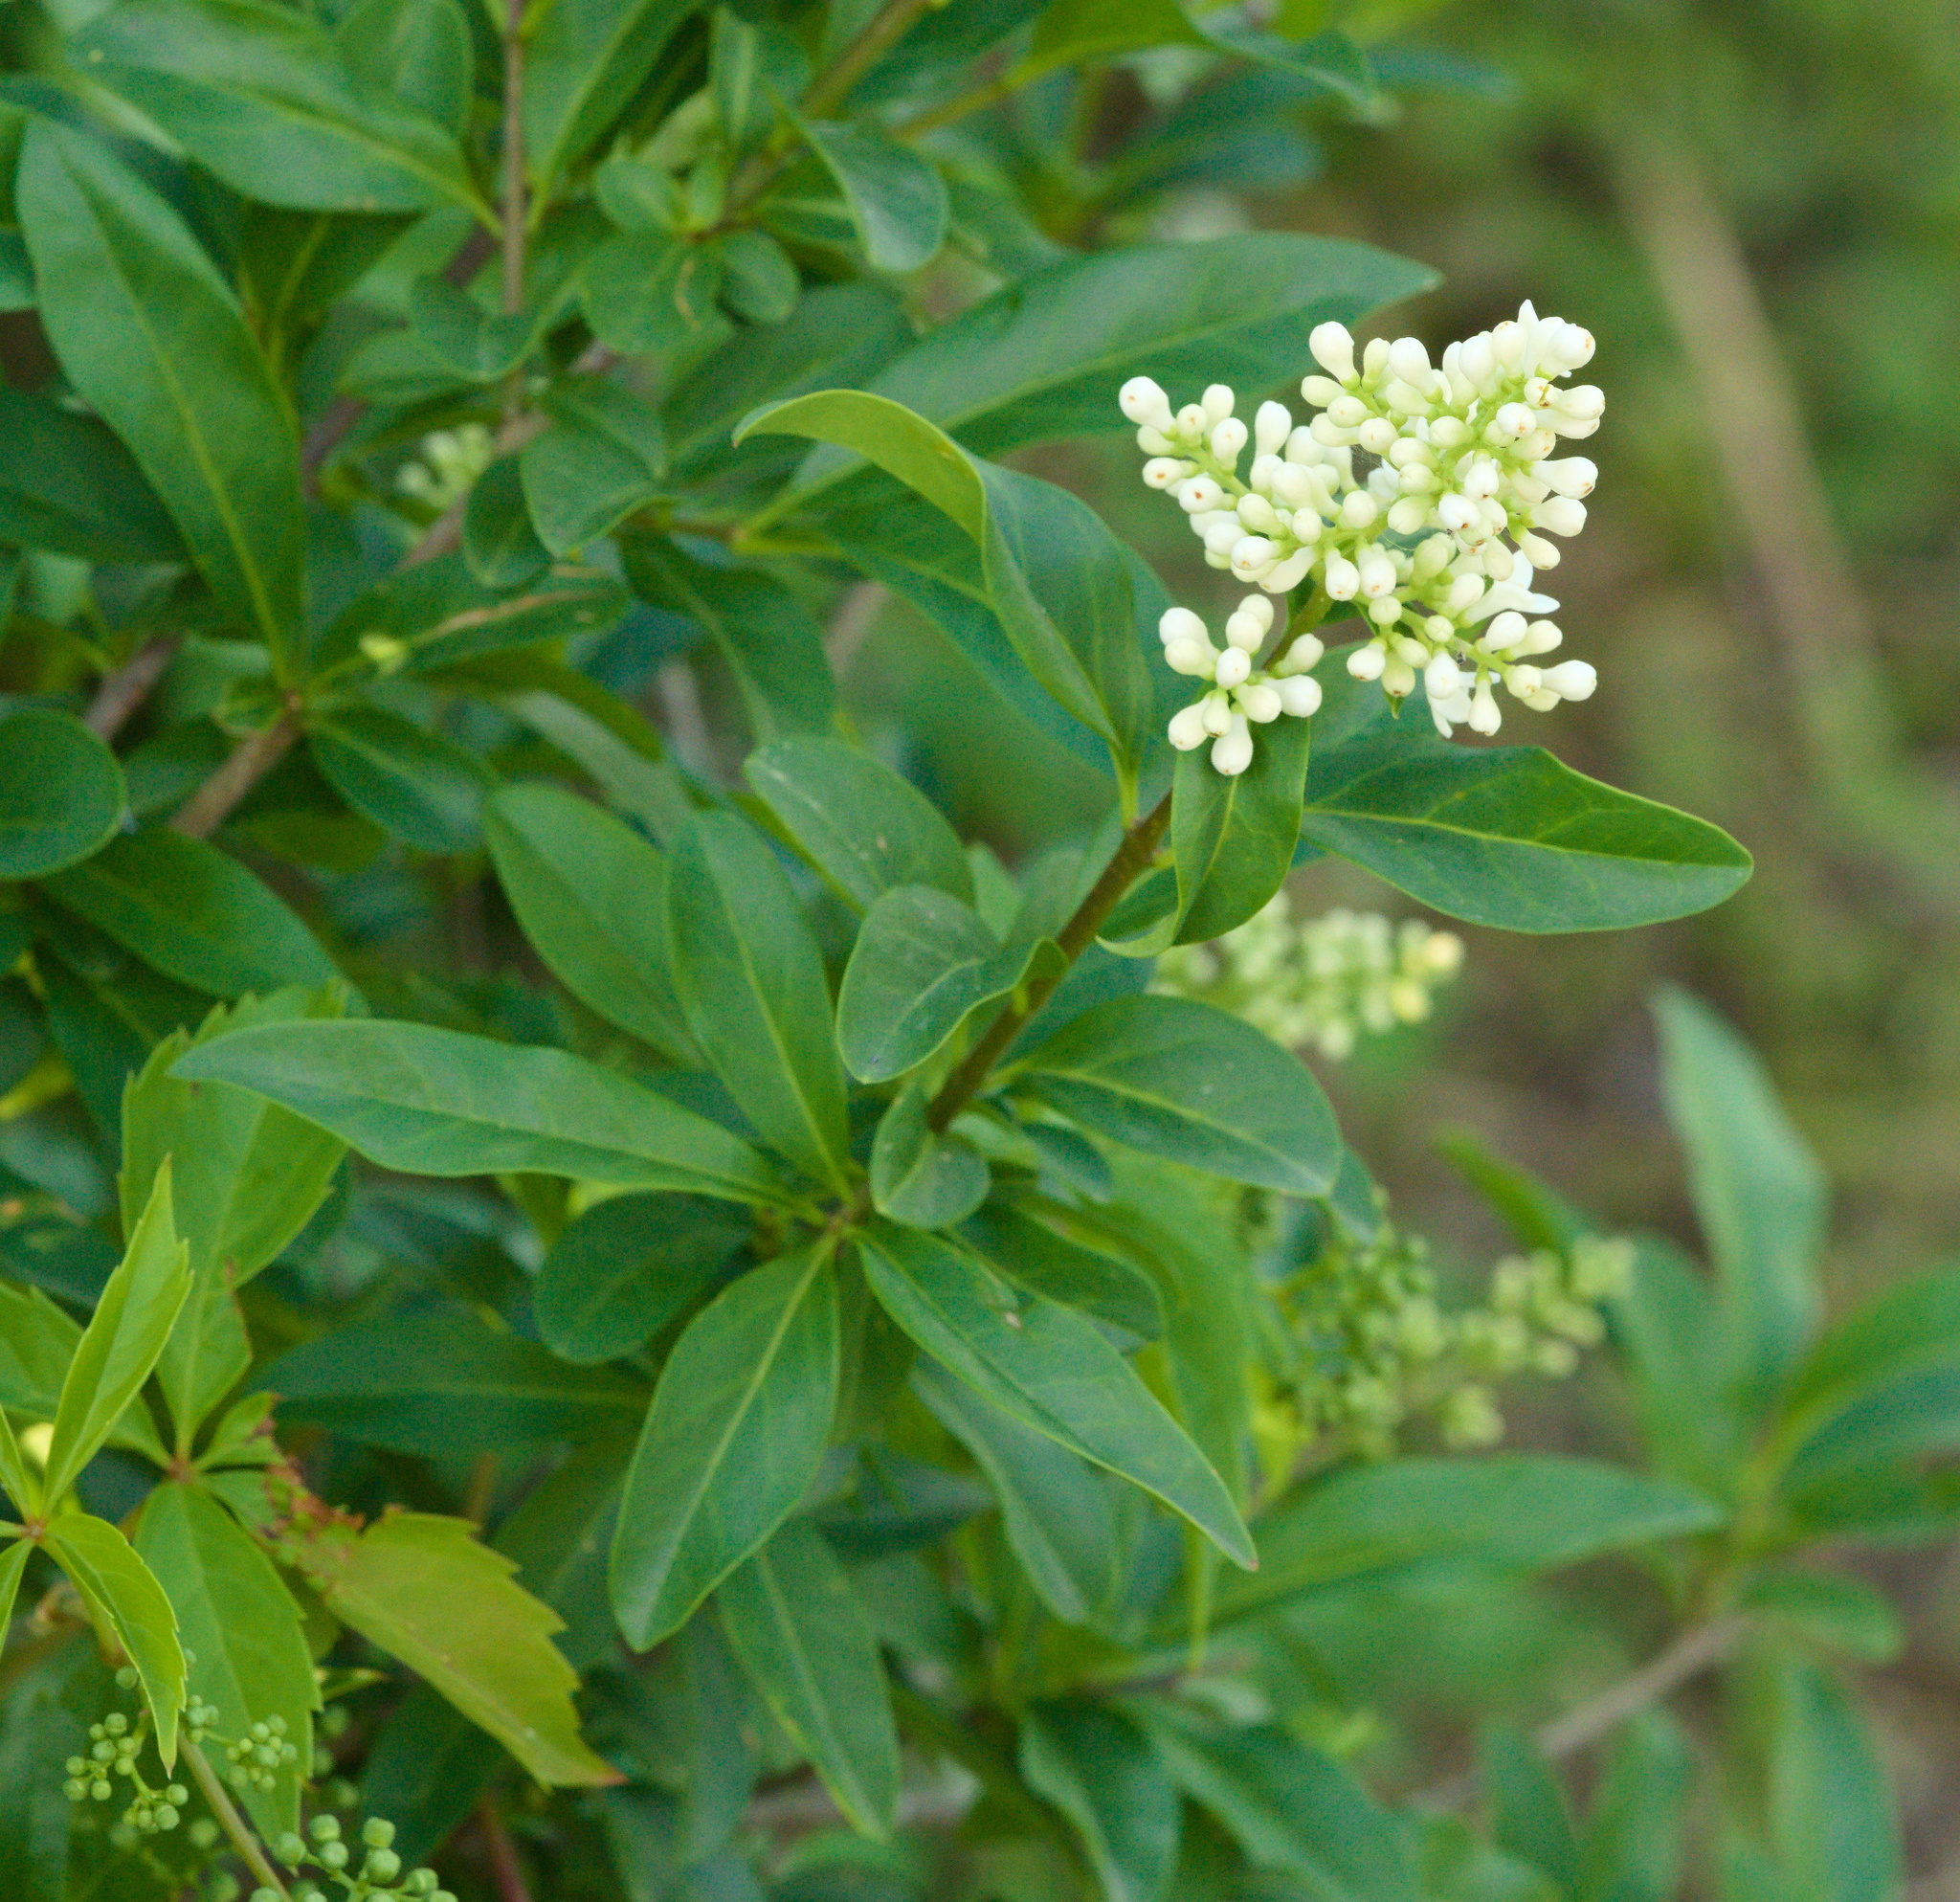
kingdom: Plantae
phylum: Tracheophyta
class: Magnoliopsida
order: Lamiales
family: Oleaceae
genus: Ligustrum
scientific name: Ligustrum vulgare
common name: Wild privet
